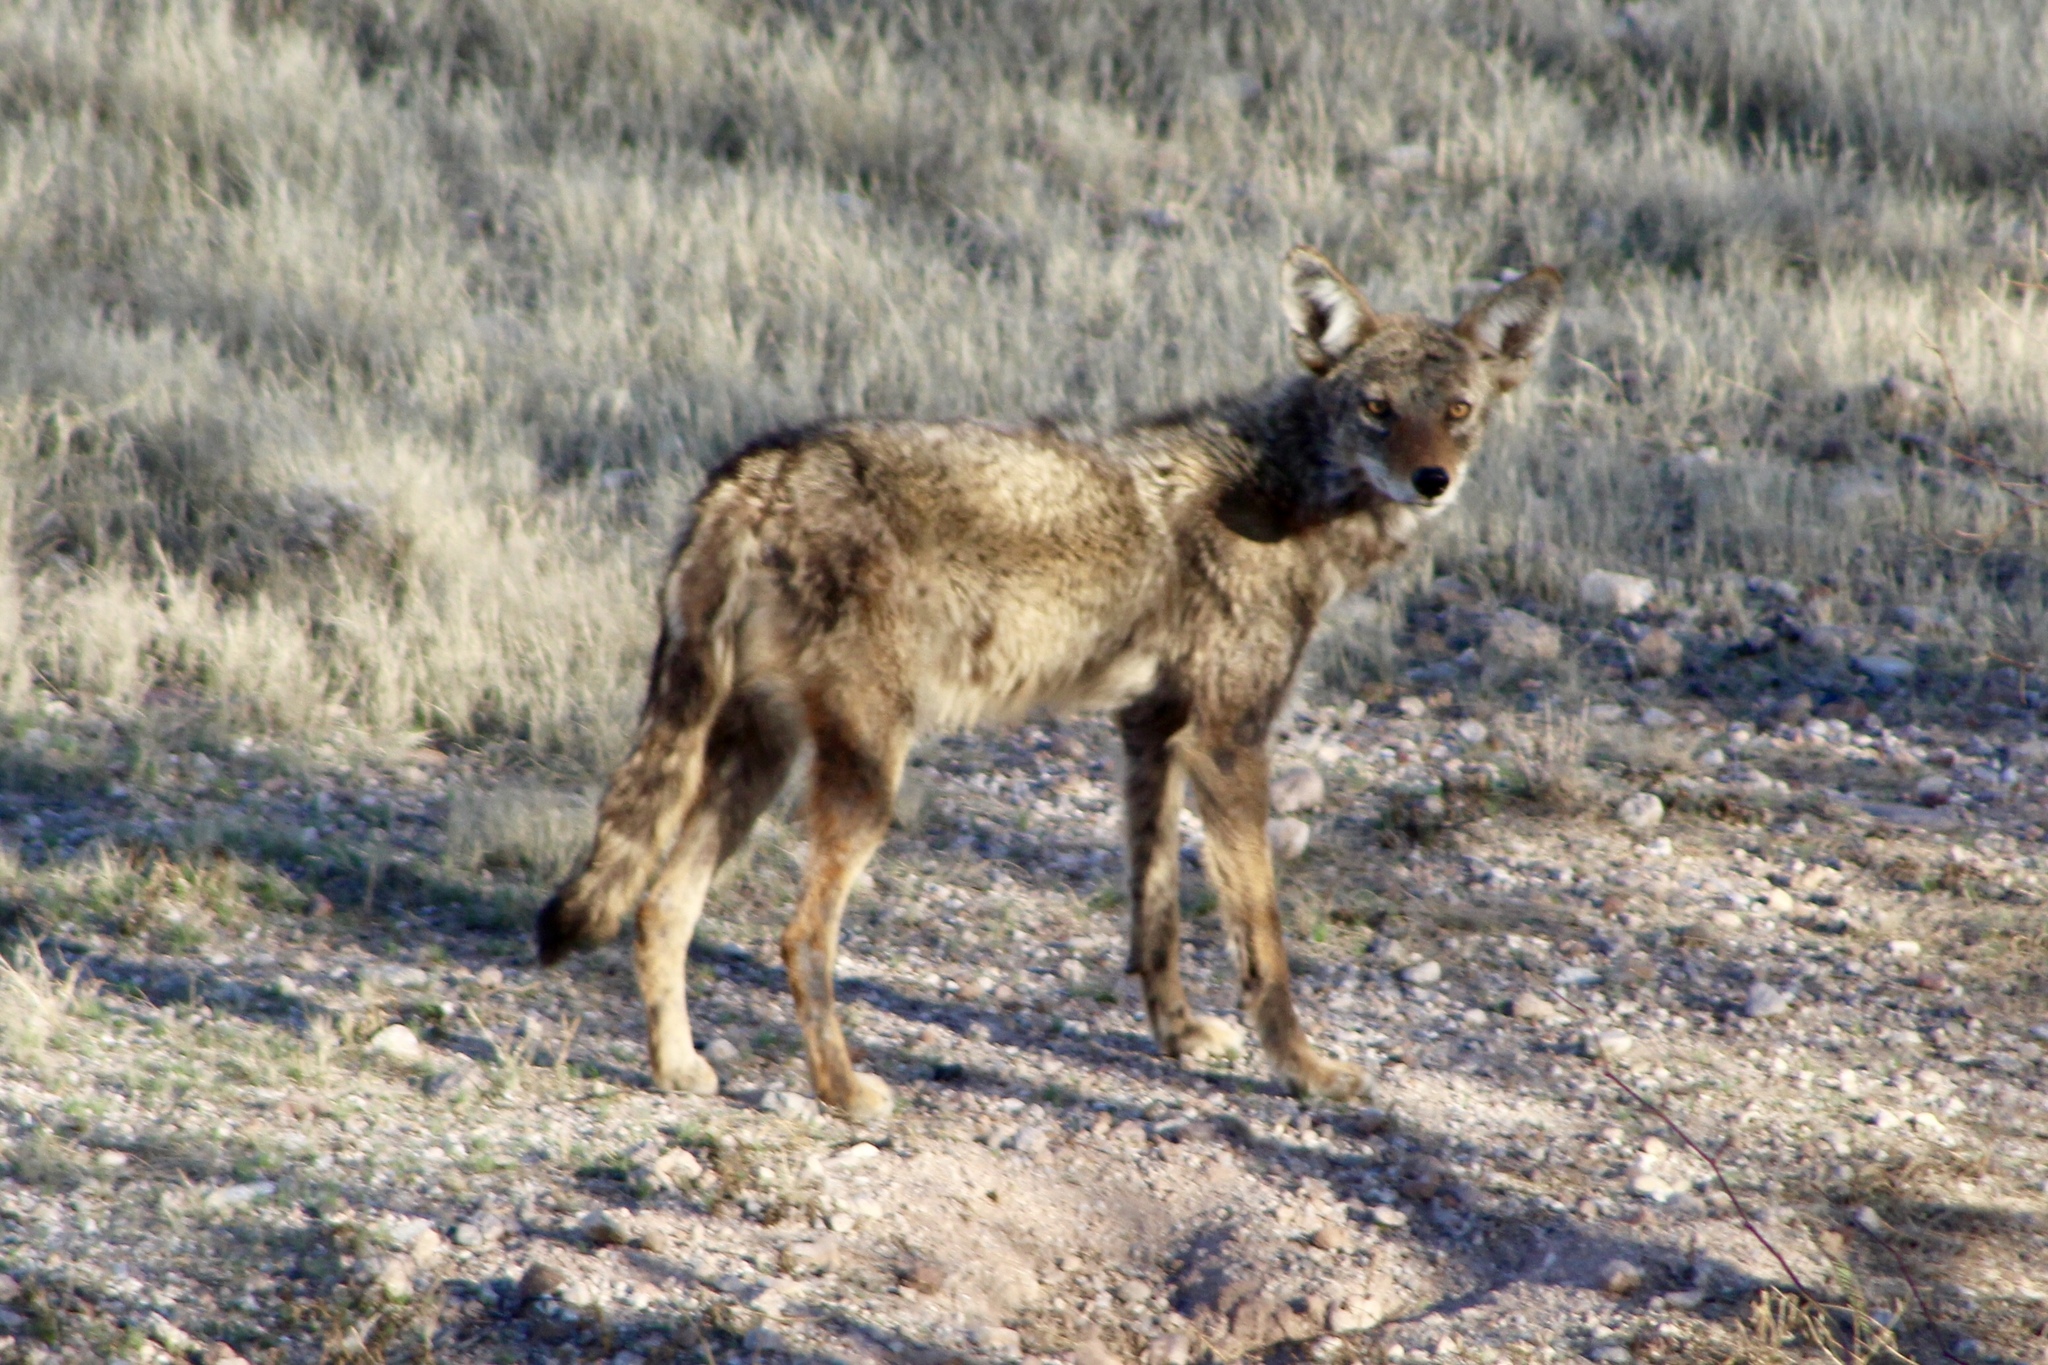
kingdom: Animalia
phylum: Chordata
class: Mammalia
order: Carnivora
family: Canidae
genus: Canis
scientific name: Canis latrans
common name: Coyote
